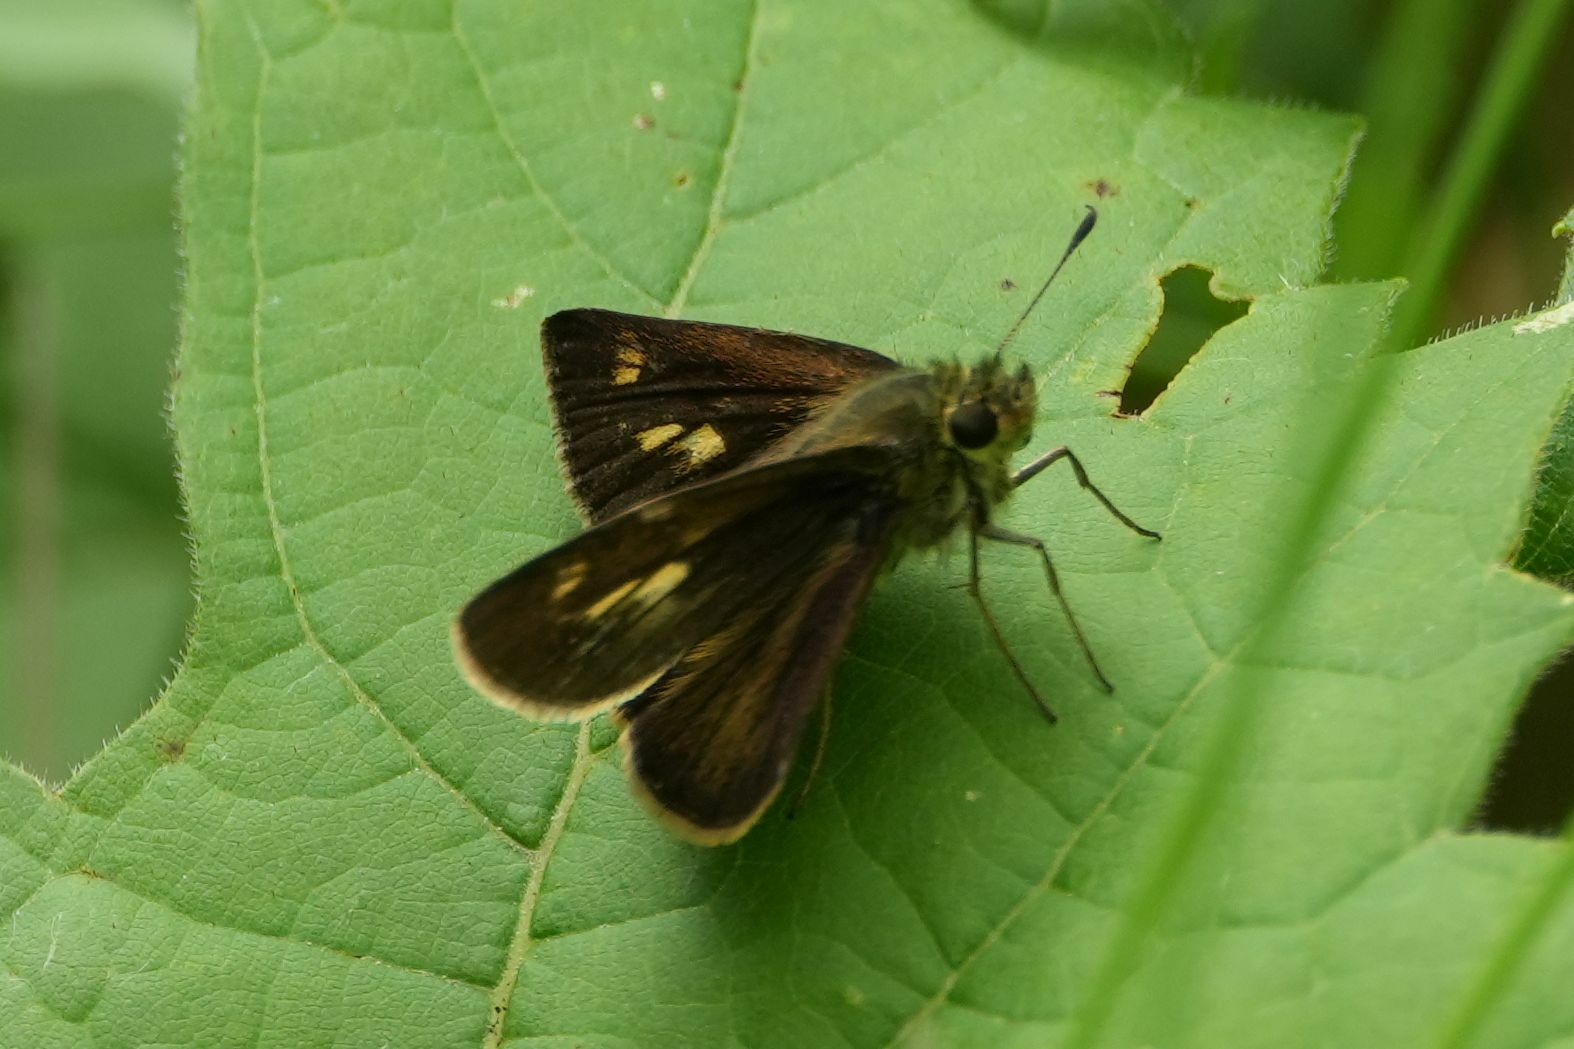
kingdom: Animalia
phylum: Arthropoda
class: Insecta
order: Lepidoptera
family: Hesperiidae
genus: Polites
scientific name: Polites egeremet
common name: Northern broken-dash
